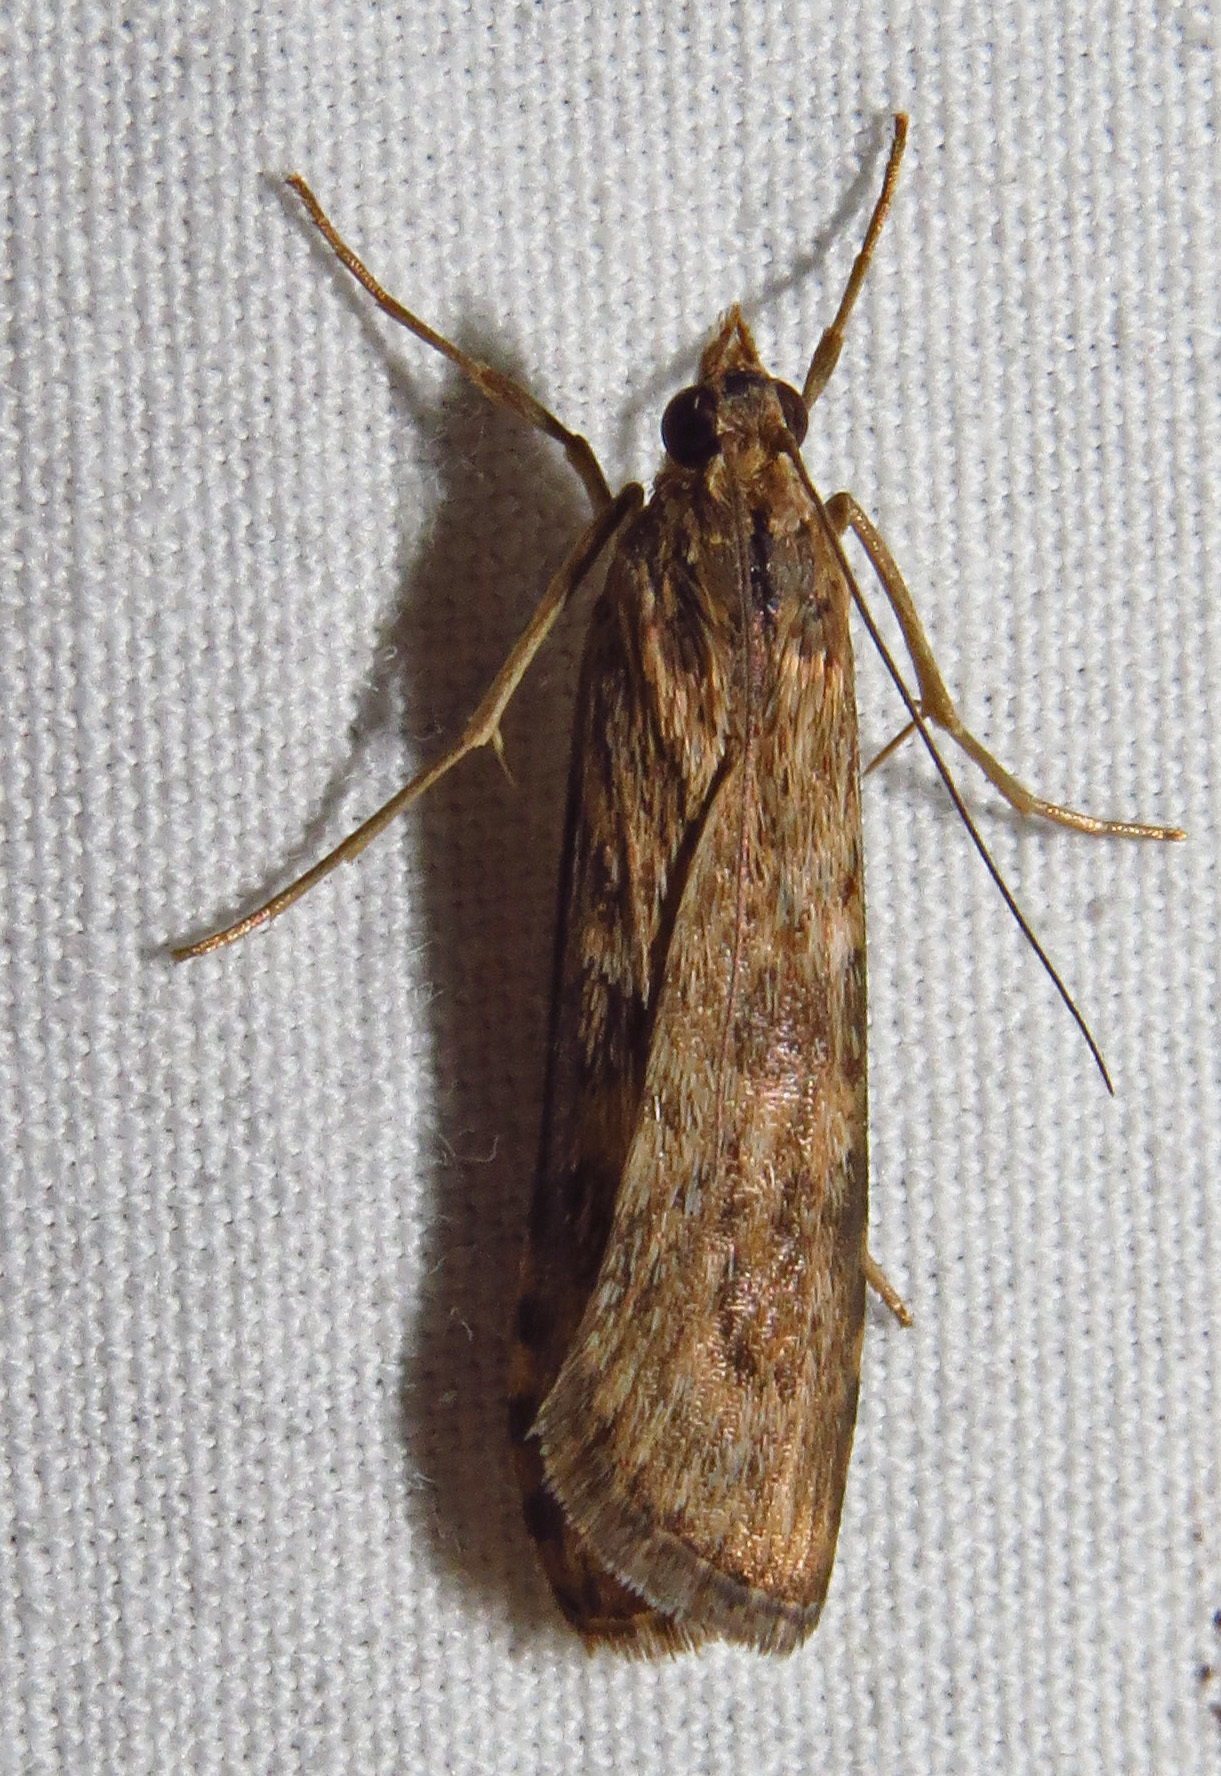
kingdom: Animalia
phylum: Arthropoda
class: Insecta
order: Lepidoptera
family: Crambidae
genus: Nomophila
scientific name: Nomophila nearctica
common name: American rush veneer
